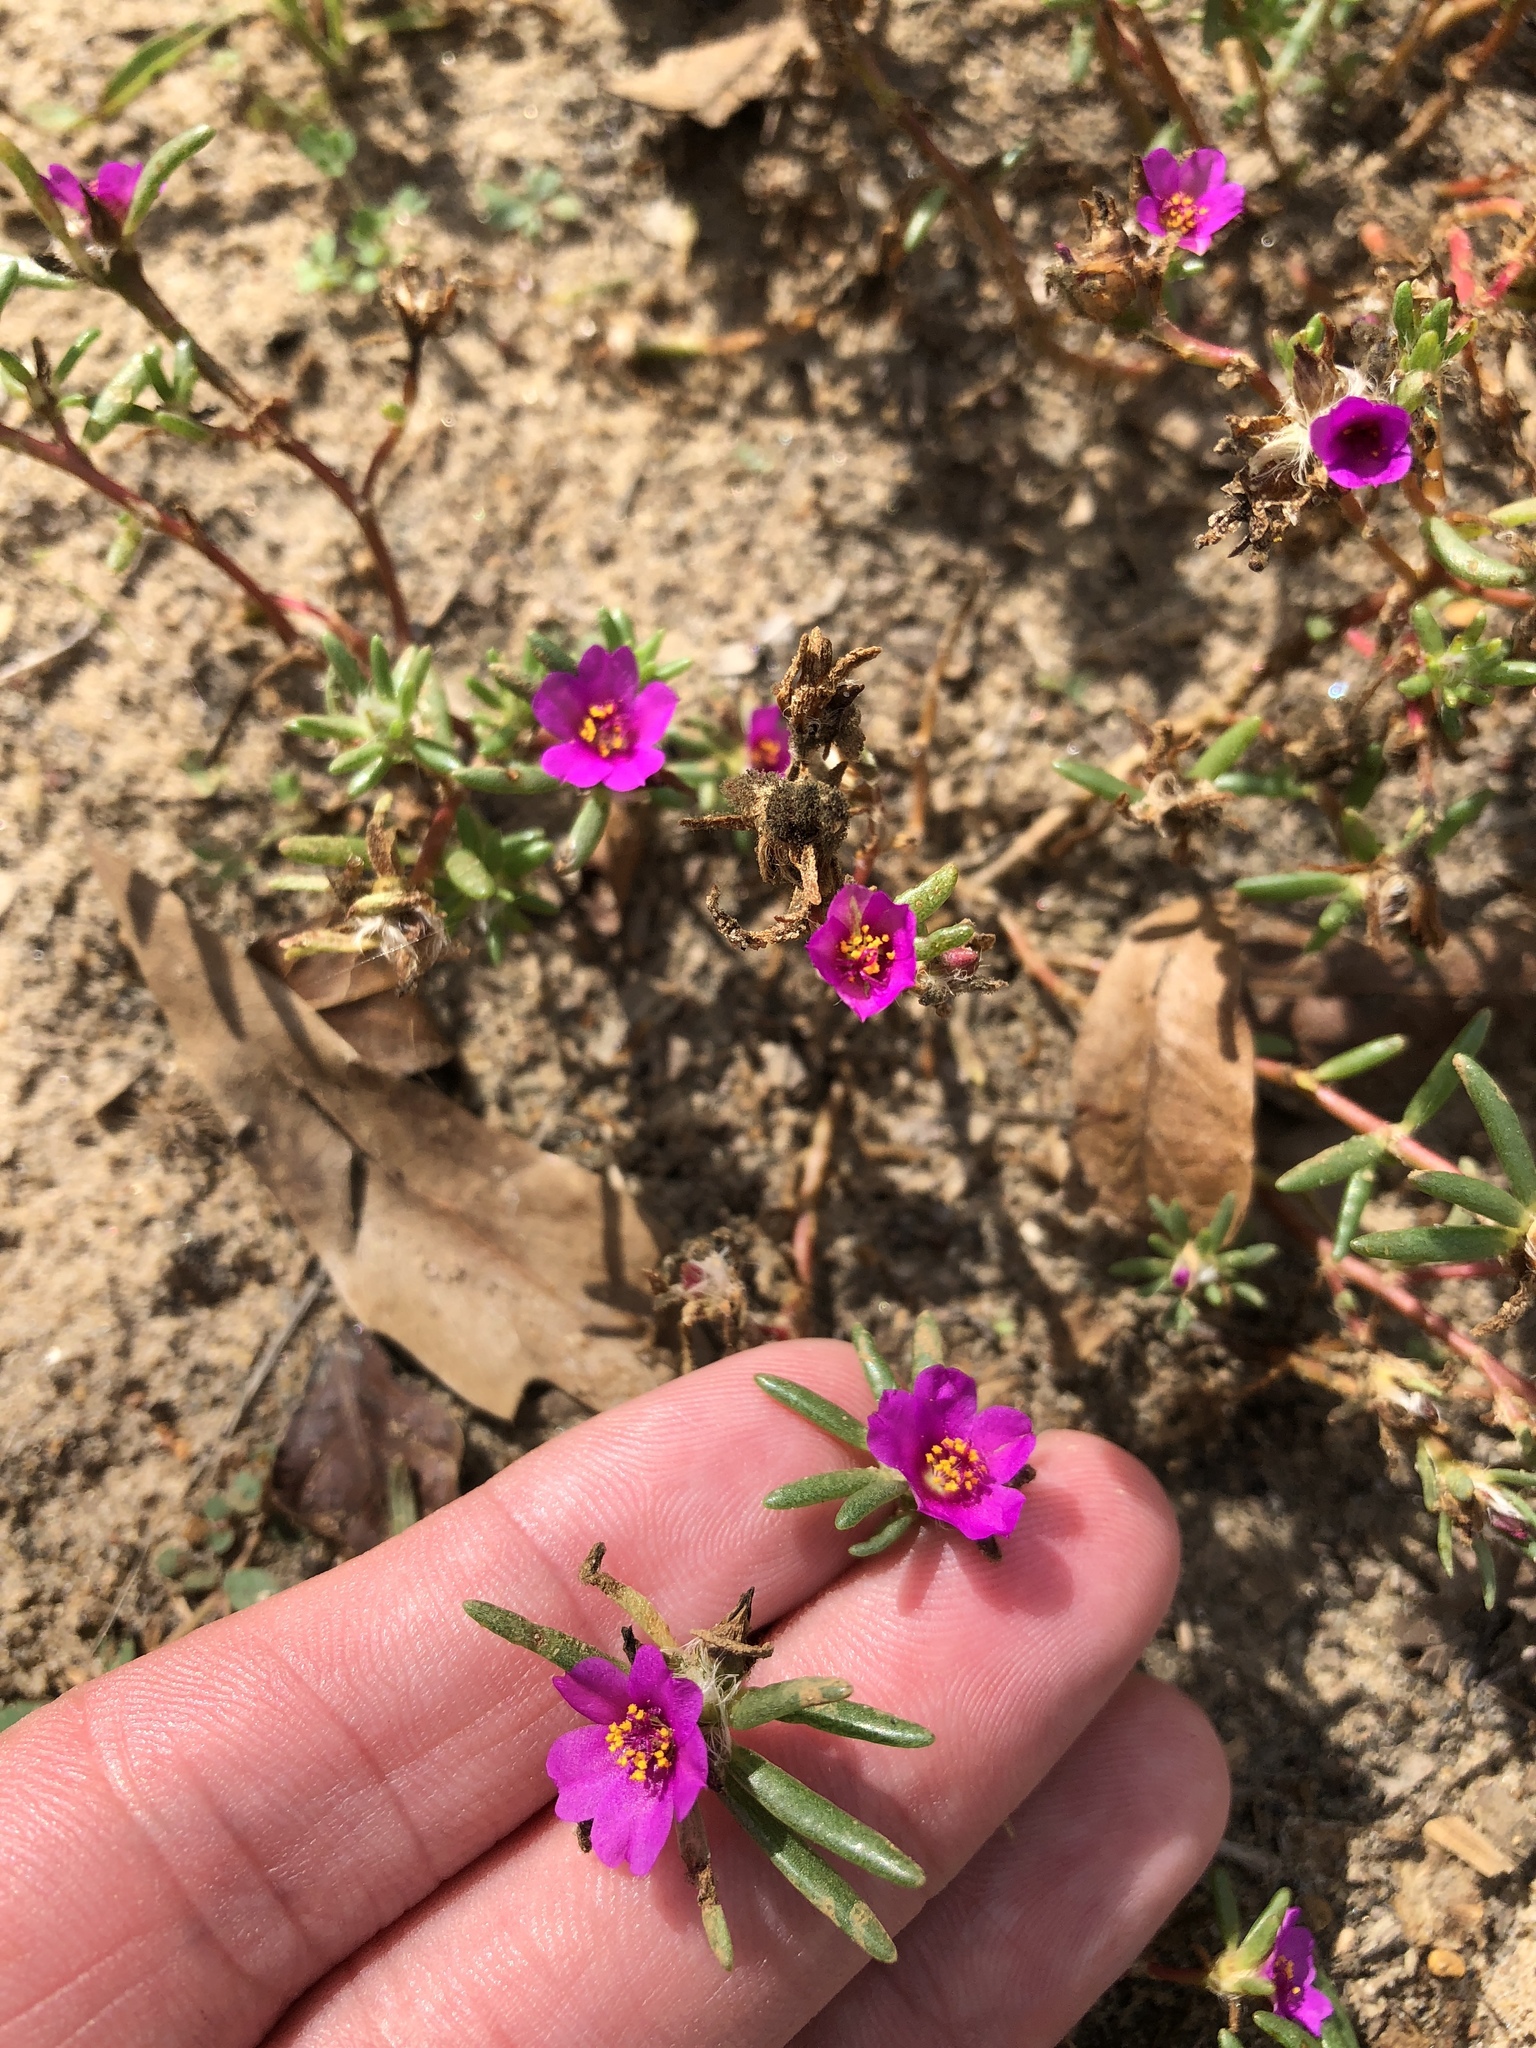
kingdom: Plantae
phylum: Tracheophyta
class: Magnoliopsida
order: Caryophyllales
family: Portulacaceae
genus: Portulaca
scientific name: Portulaca pilosa
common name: Kiss me quick
